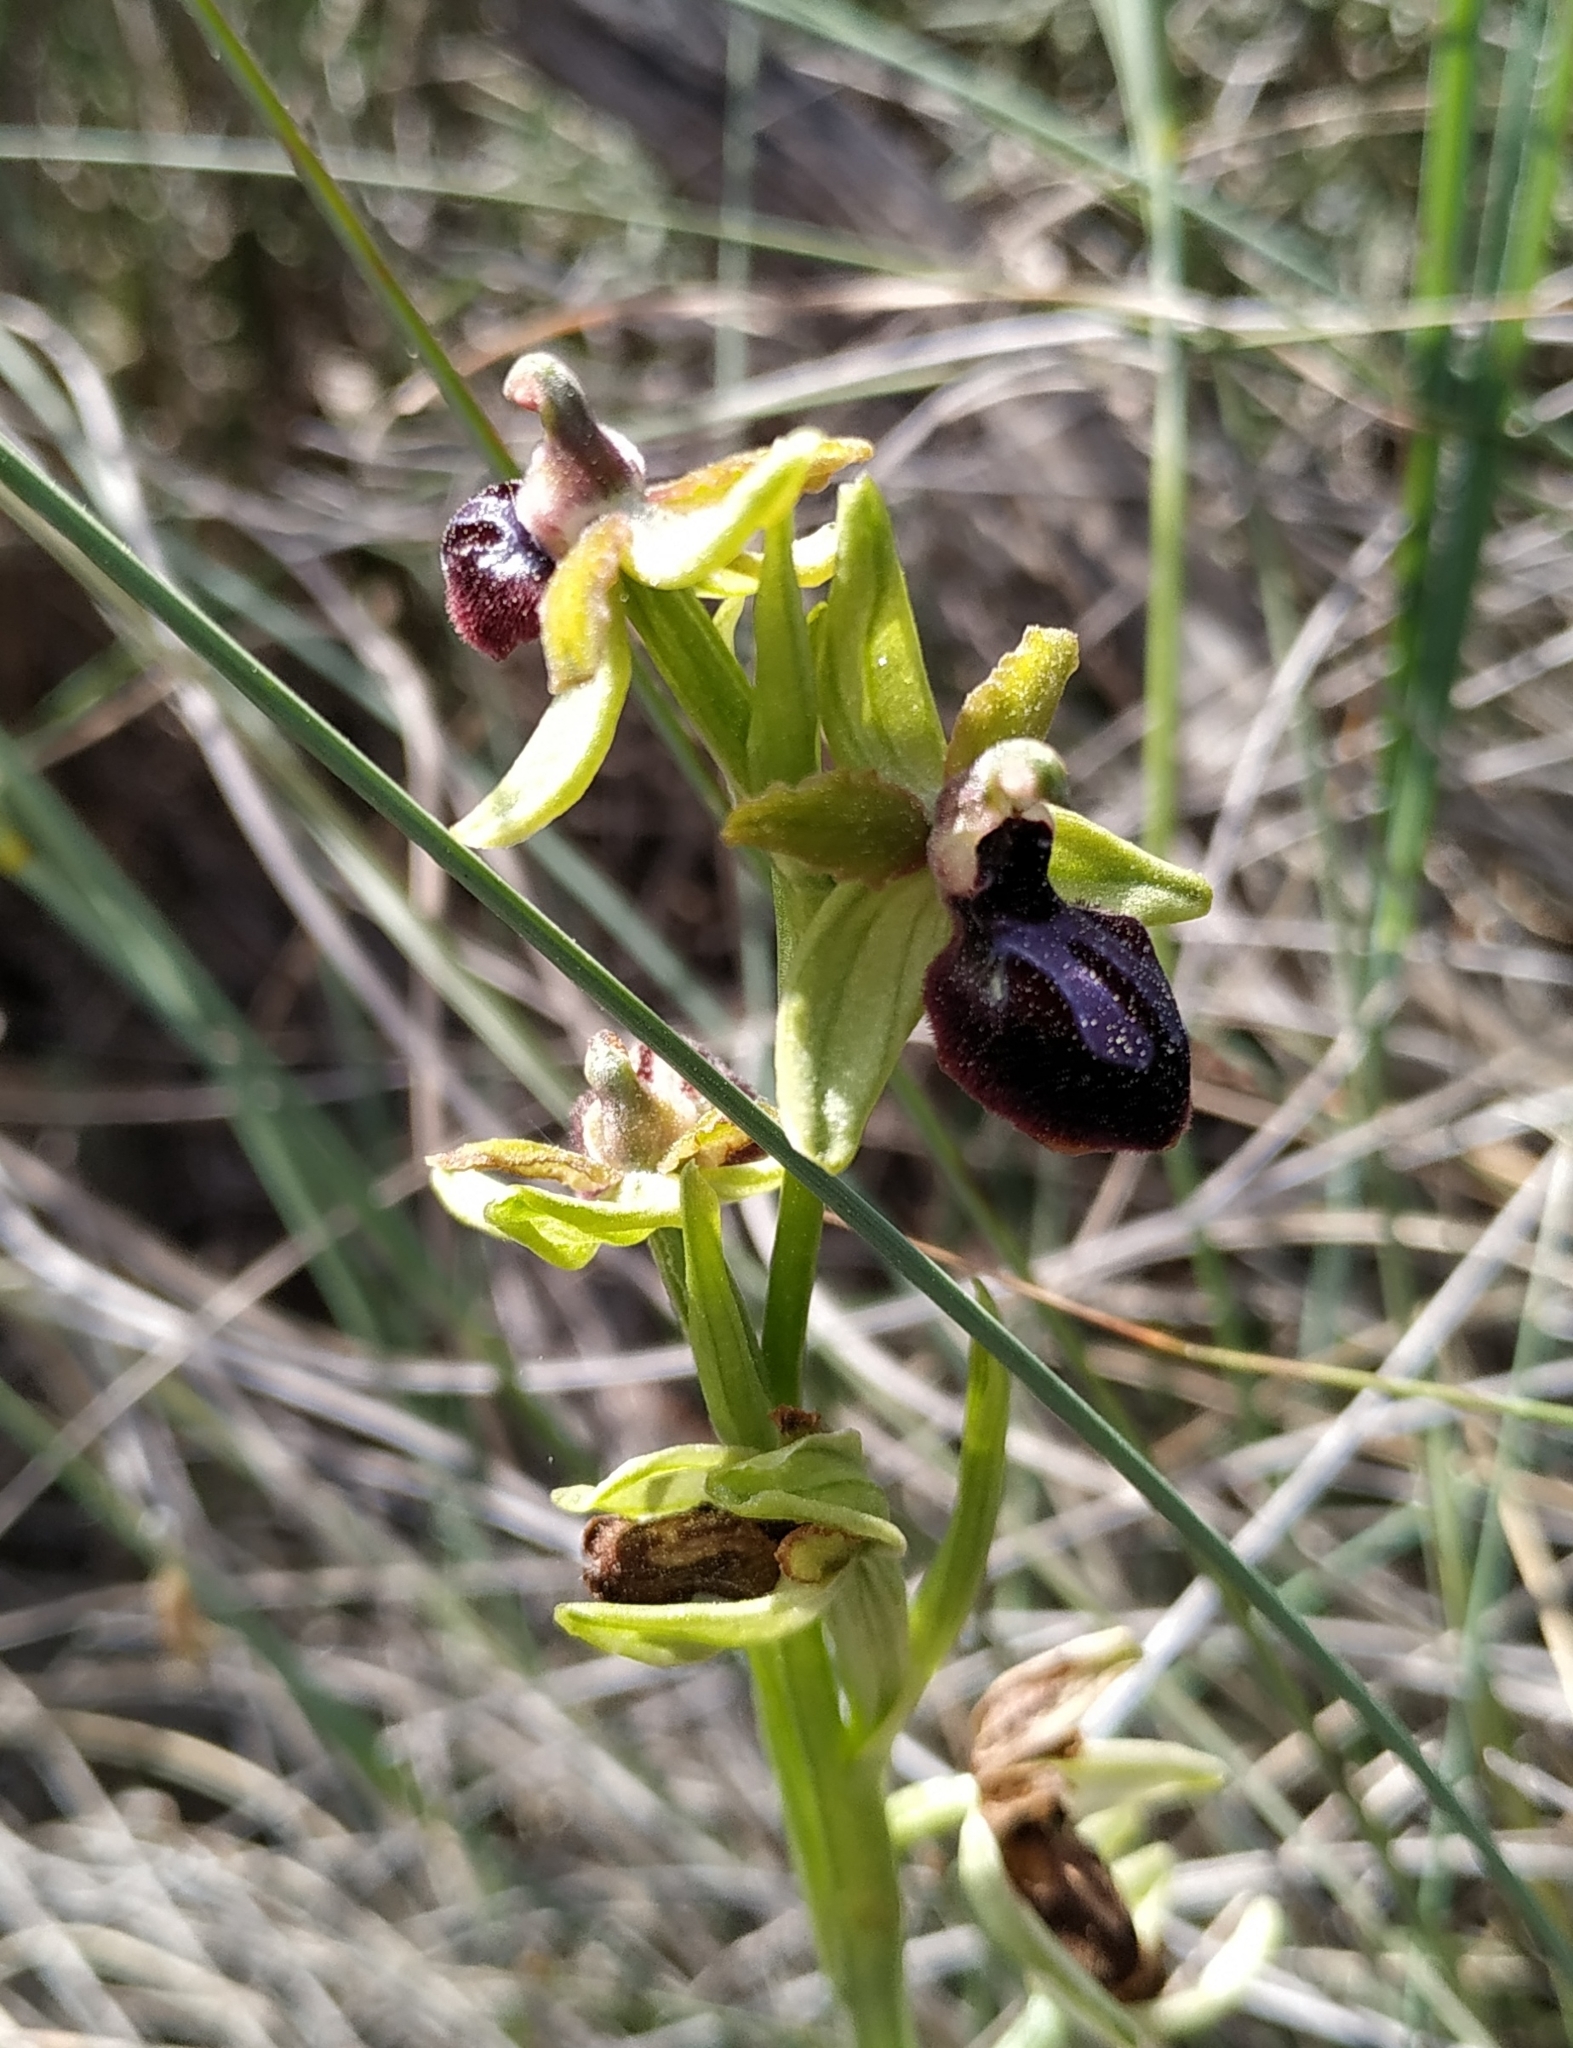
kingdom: Plantae
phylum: Tracheophyta
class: Liliopsida
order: Asparagales
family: Orchidaceae
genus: Ophrys
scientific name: Ophrys sphegodes
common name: Early spider-orchid
